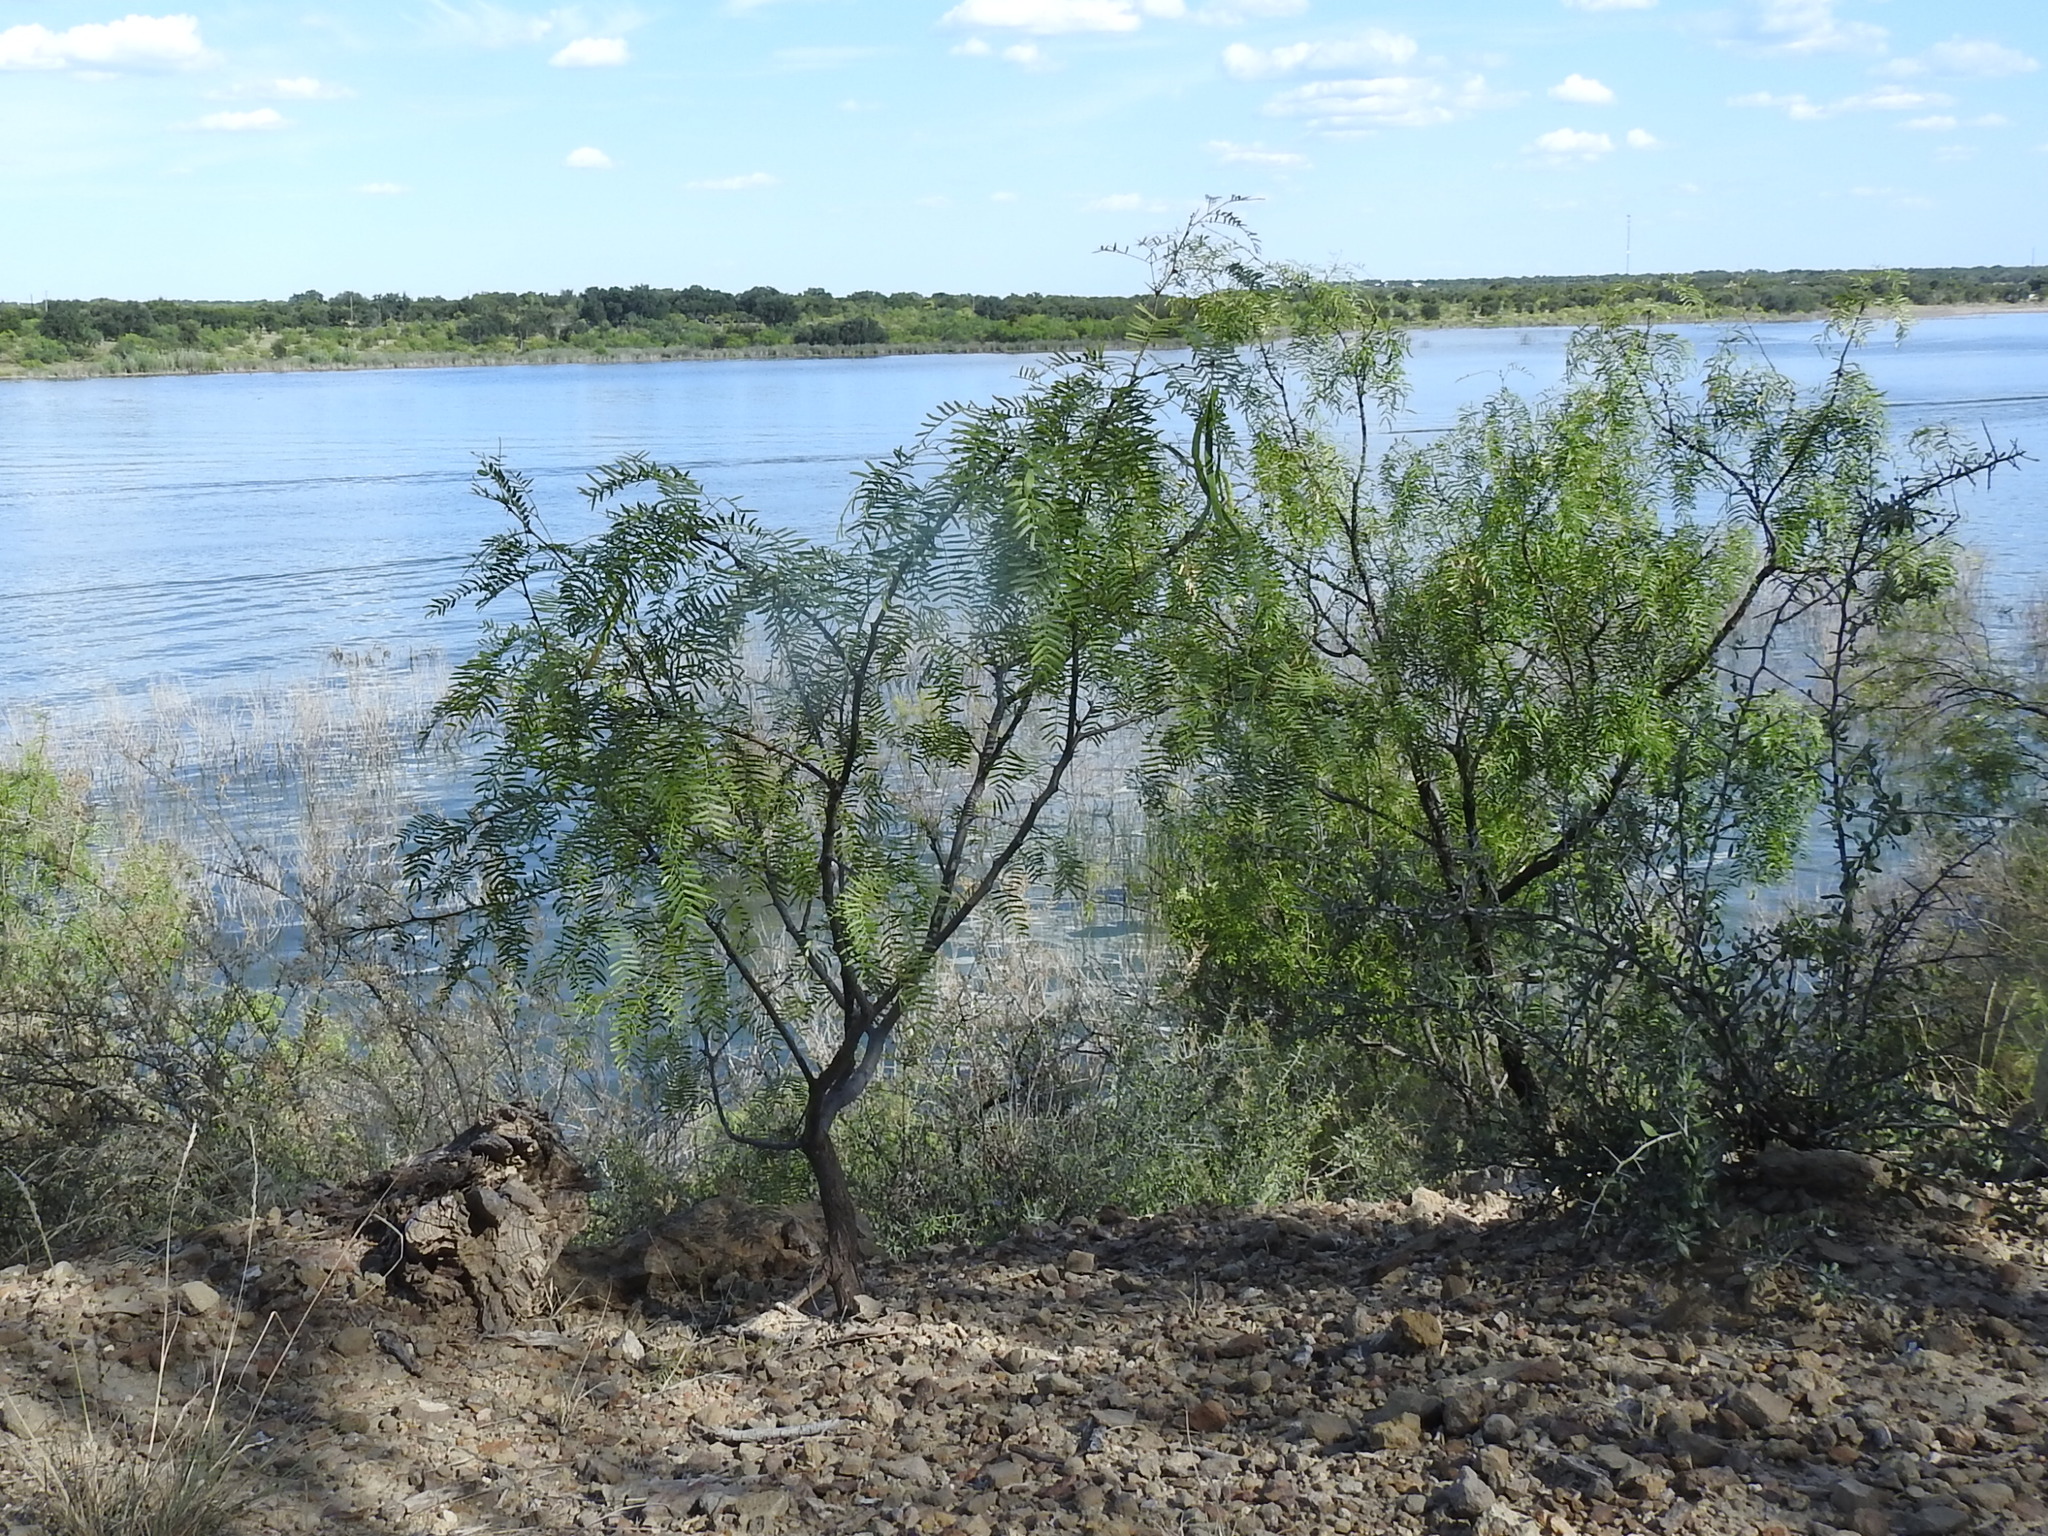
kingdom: Plantae
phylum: Tracheophyta
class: Magnoliopsida
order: Fabales
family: Fabaceae
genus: Prosopis
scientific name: Prosopis glandulosa
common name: Honey mesquite
